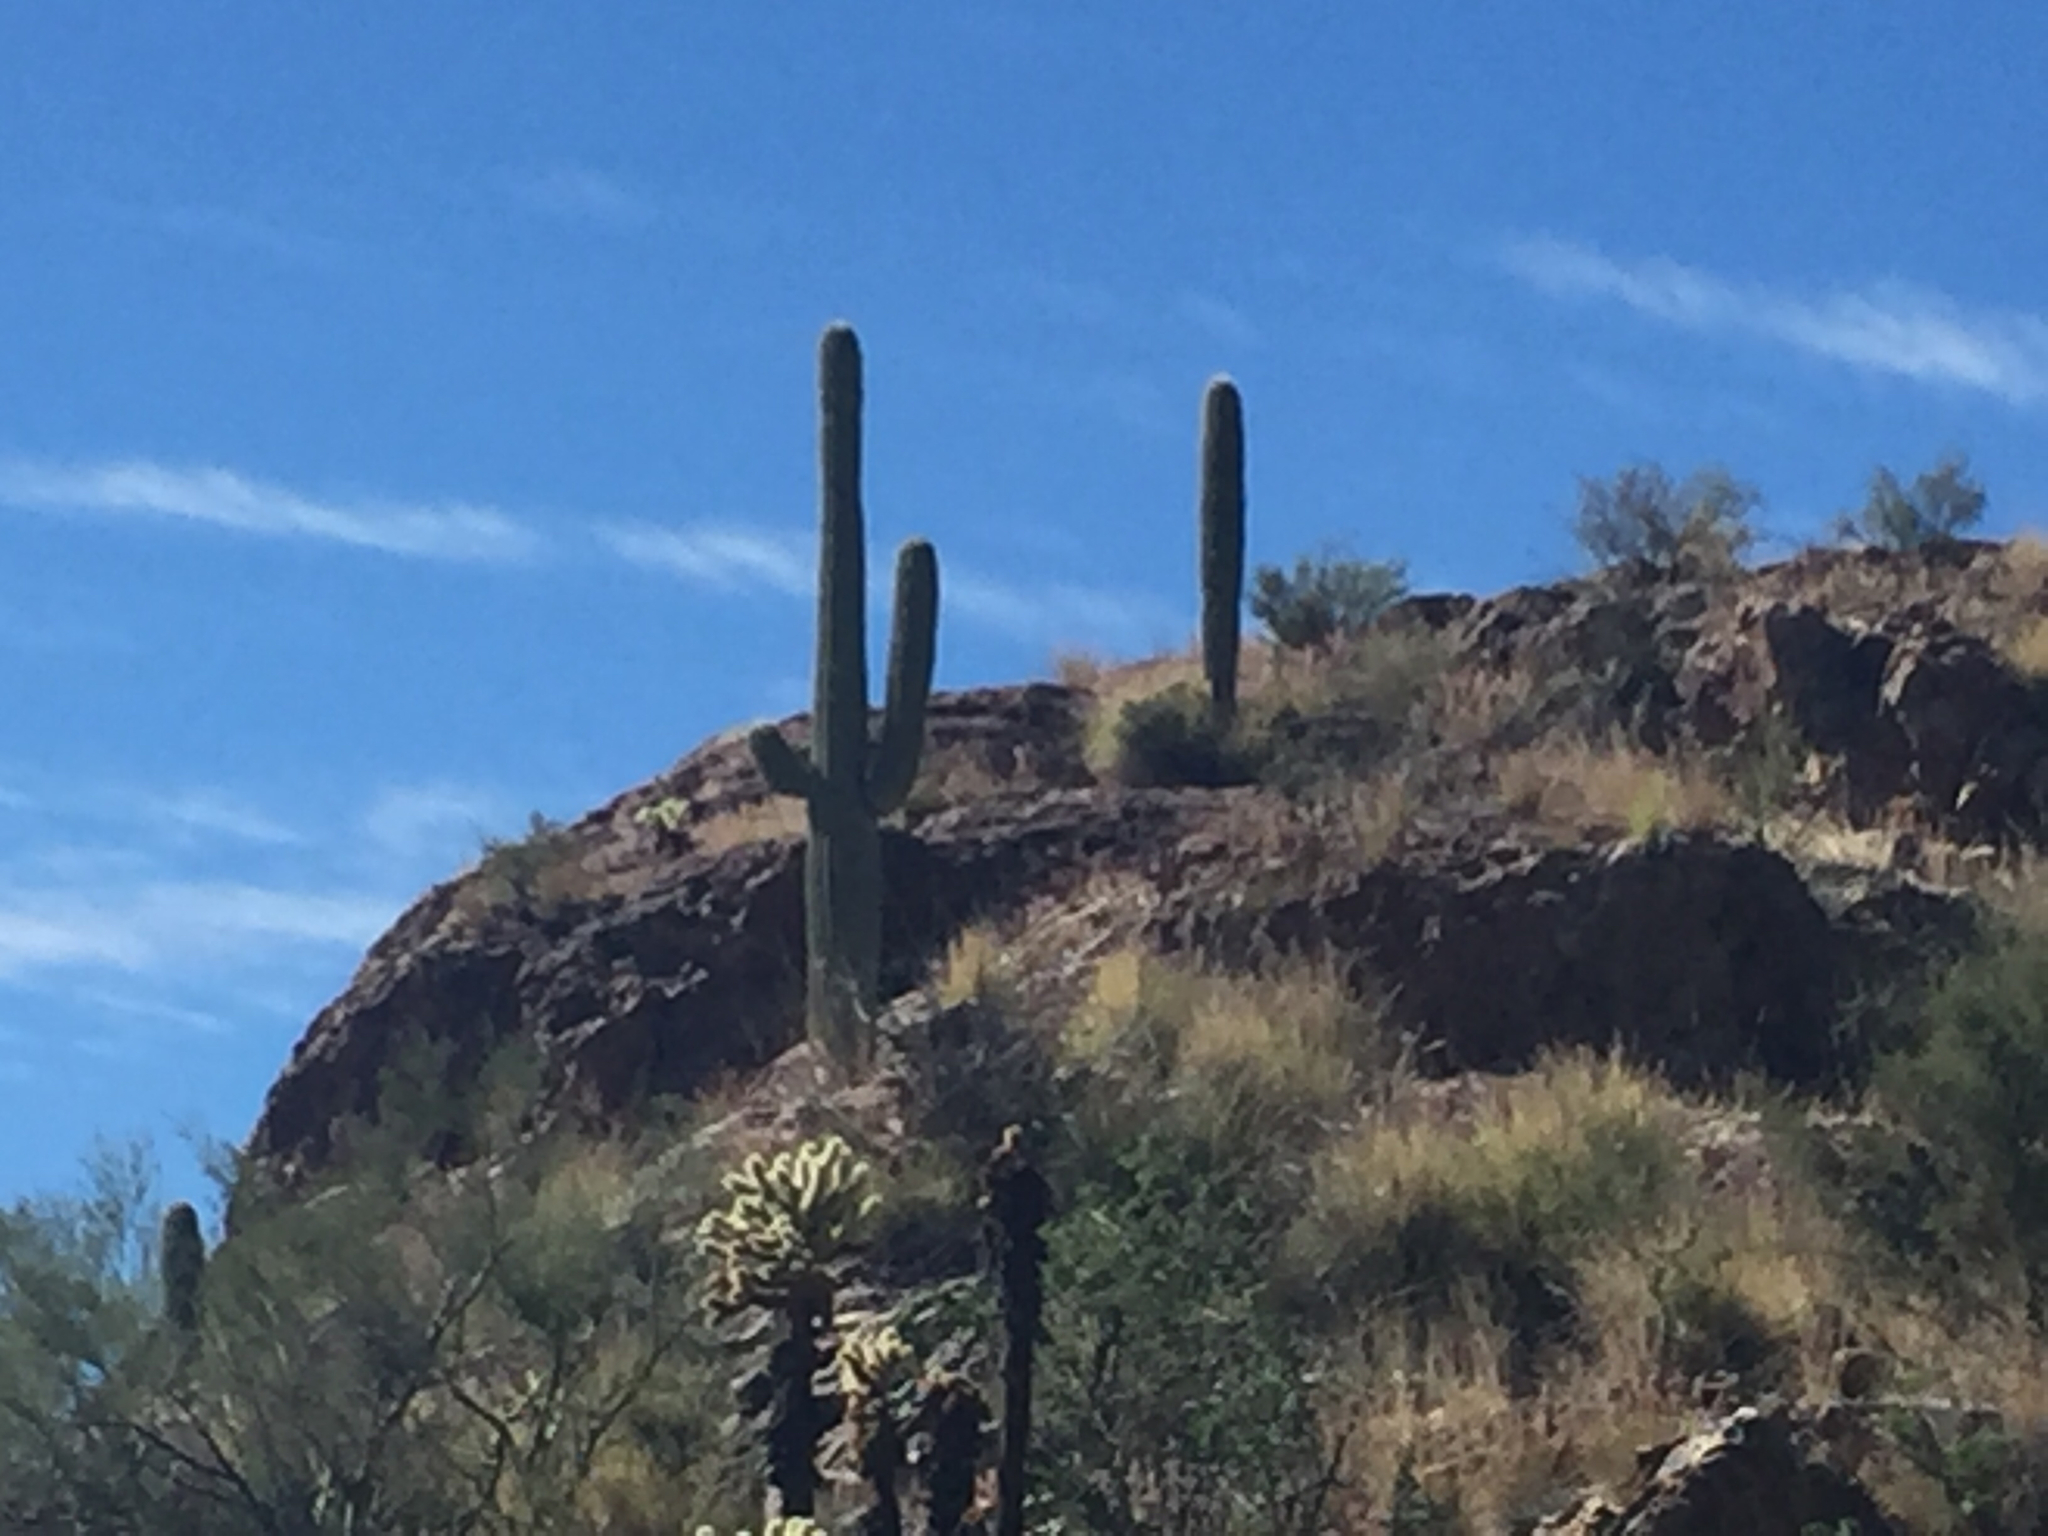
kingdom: Plantae
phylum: Tracheophyta
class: Magnoliopsida
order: Caryophyllales
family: Cactaceae
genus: Carnegiea
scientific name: Carnegiea gigantea
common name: Saguaro
